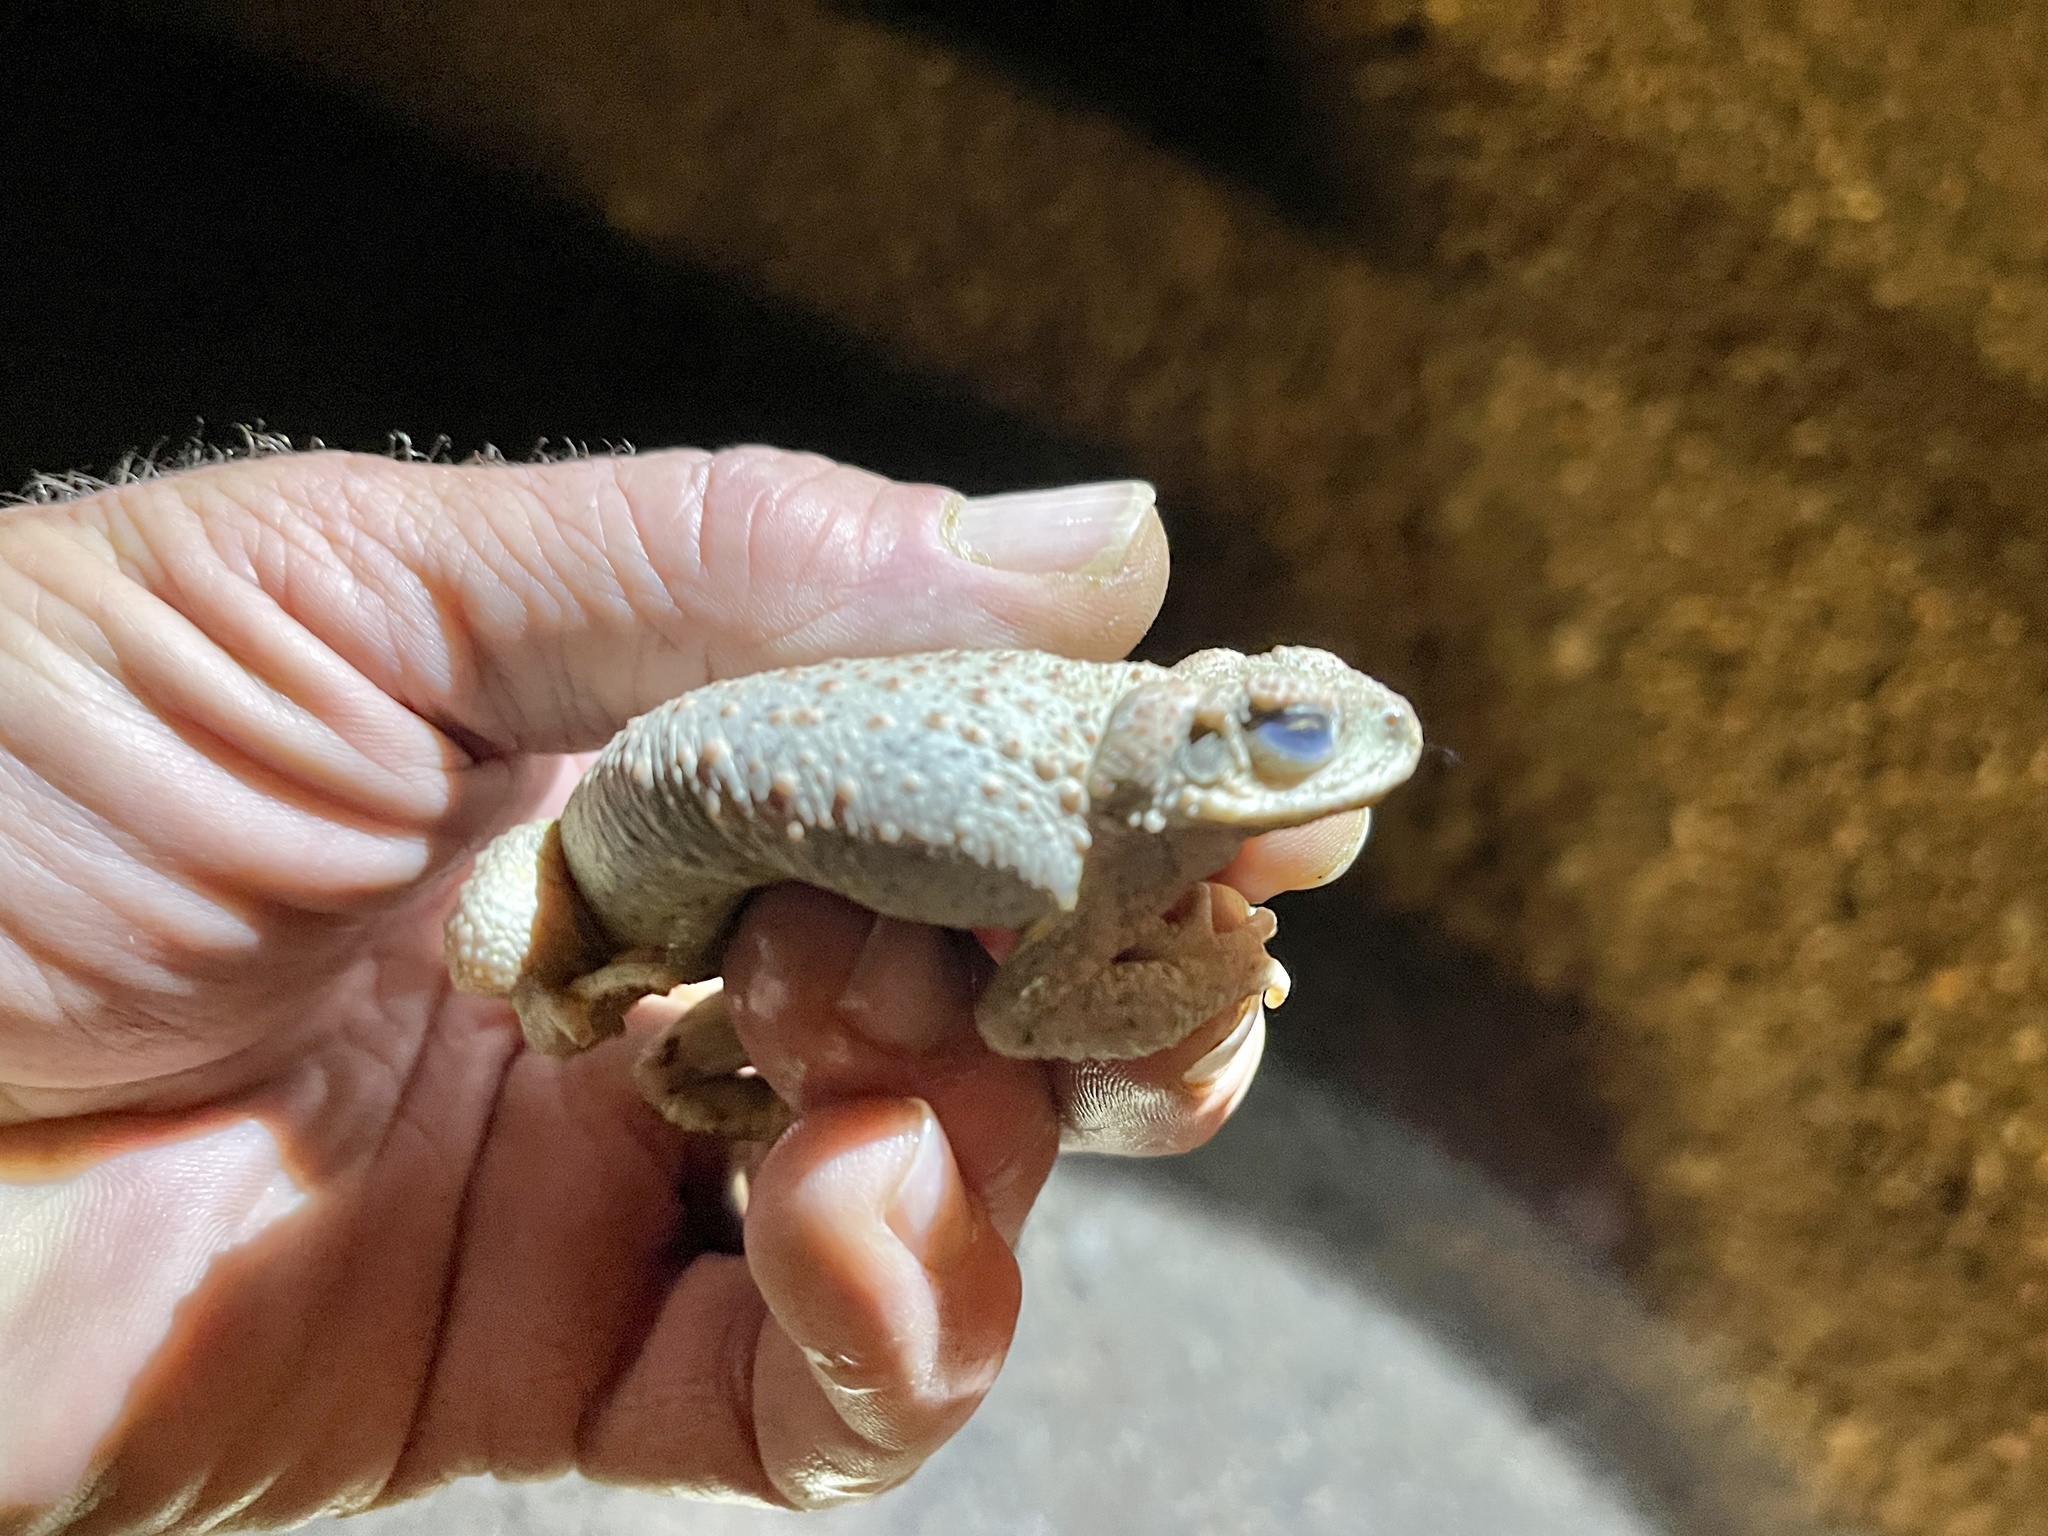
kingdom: Animalia
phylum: Chordata
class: Amphibia
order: Anura
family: Bufonidae
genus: Anaxyrus
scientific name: Anaxyrus punctatus
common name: Red-spotted toad
